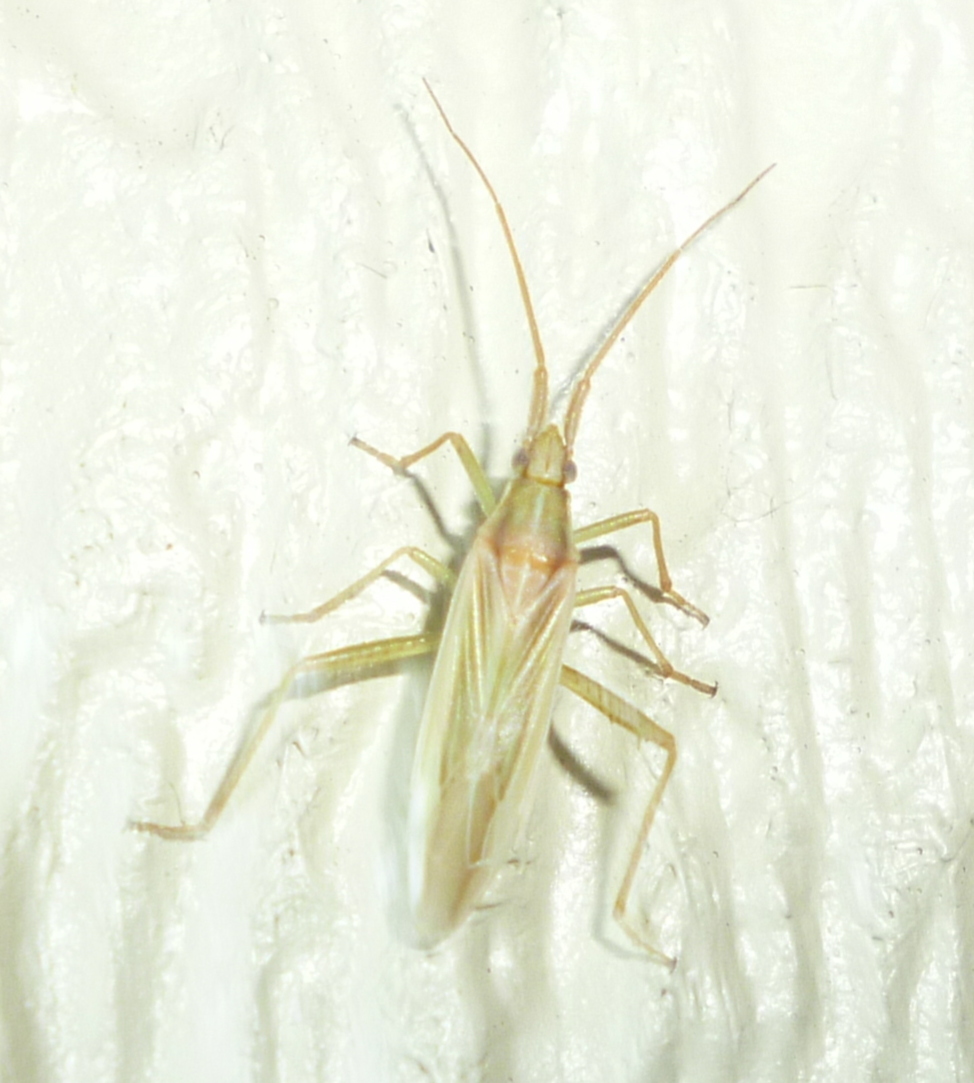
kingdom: Animalia
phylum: Arthropoda
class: Insecta
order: Hemiptera
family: Miridae
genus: Stenodema
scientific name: Stenodema trispinosa
